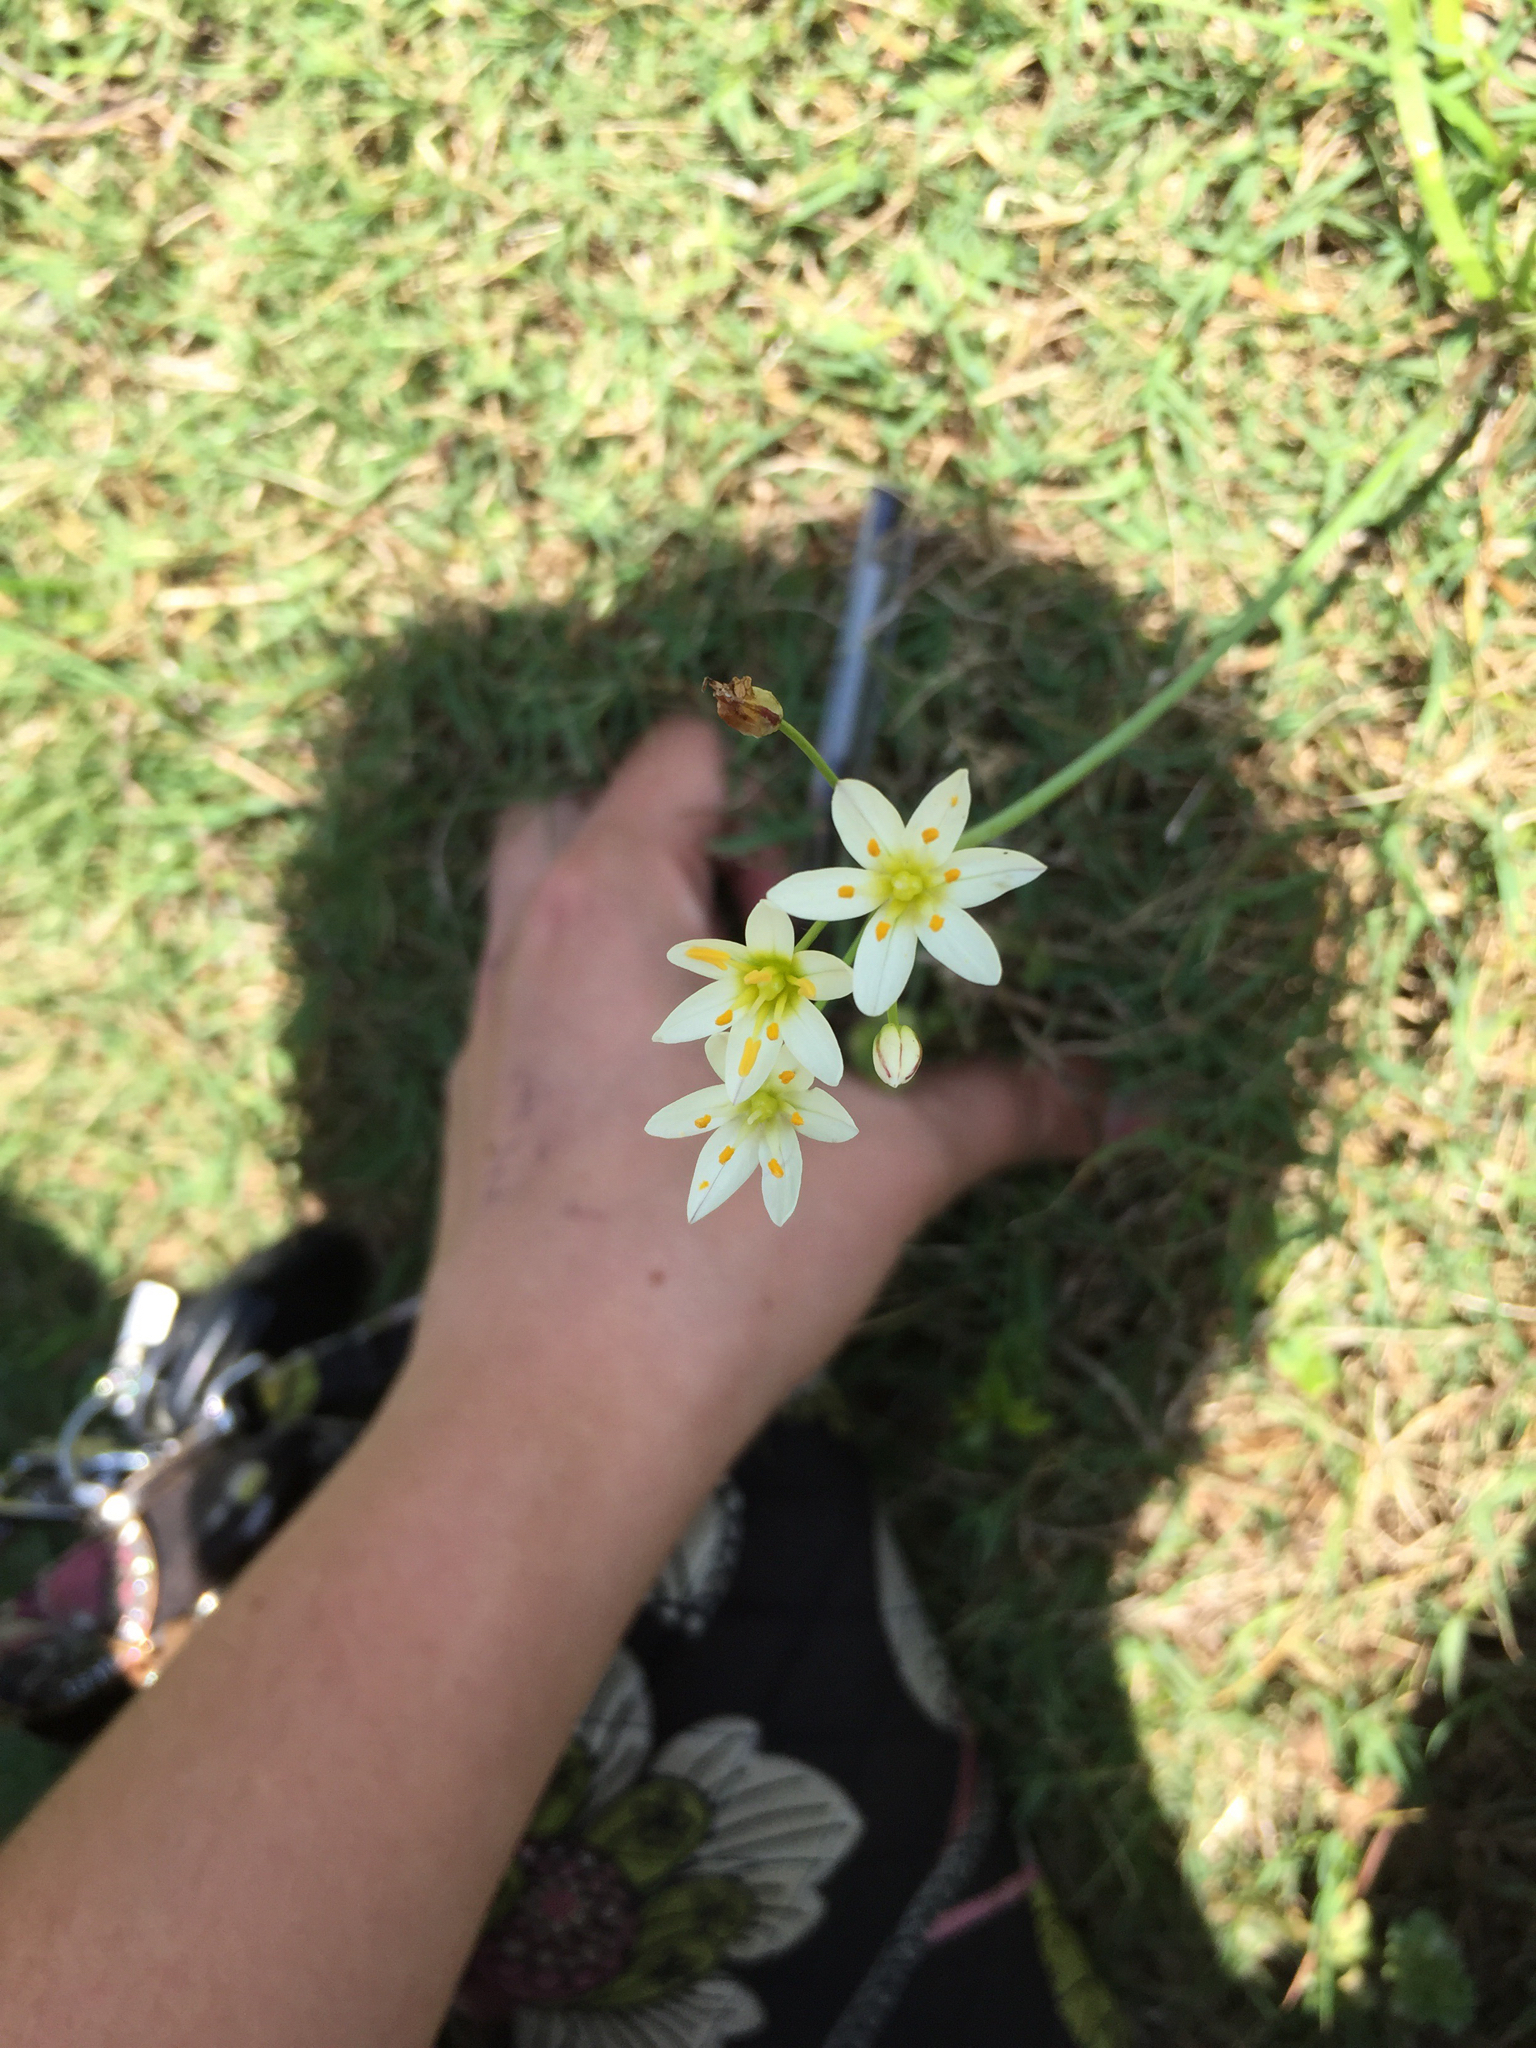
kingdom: Plantae
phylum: Tracheophyta
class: Liliopsida
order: Asparagales
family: Amaryllidaceae
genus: Nothoscordum
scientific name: Nothoscordum bivalve
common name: Crow-poison
